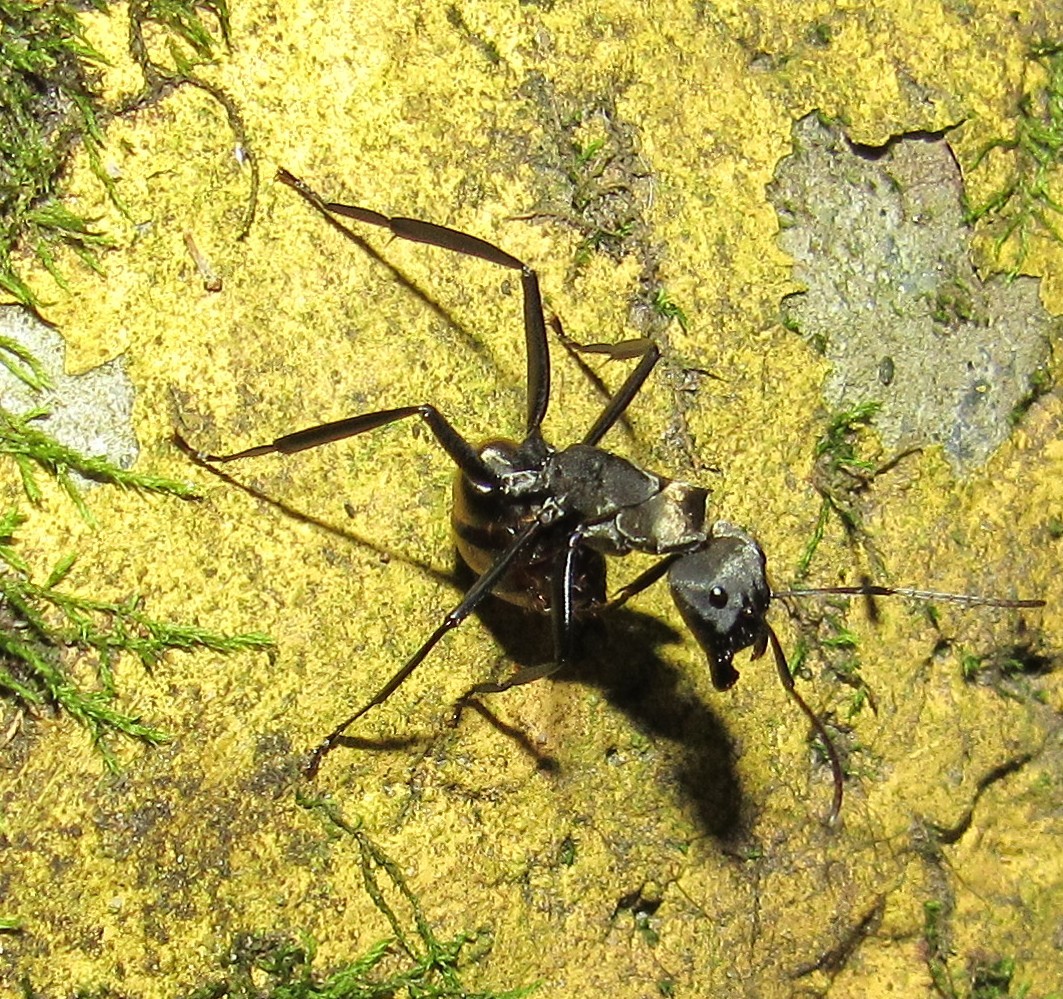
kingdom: Animalia
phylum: Arthropoda
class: Insecta
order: Hymenoptera
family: Formicidae
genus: Camponotus
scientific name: Camponotus sericeiventris
